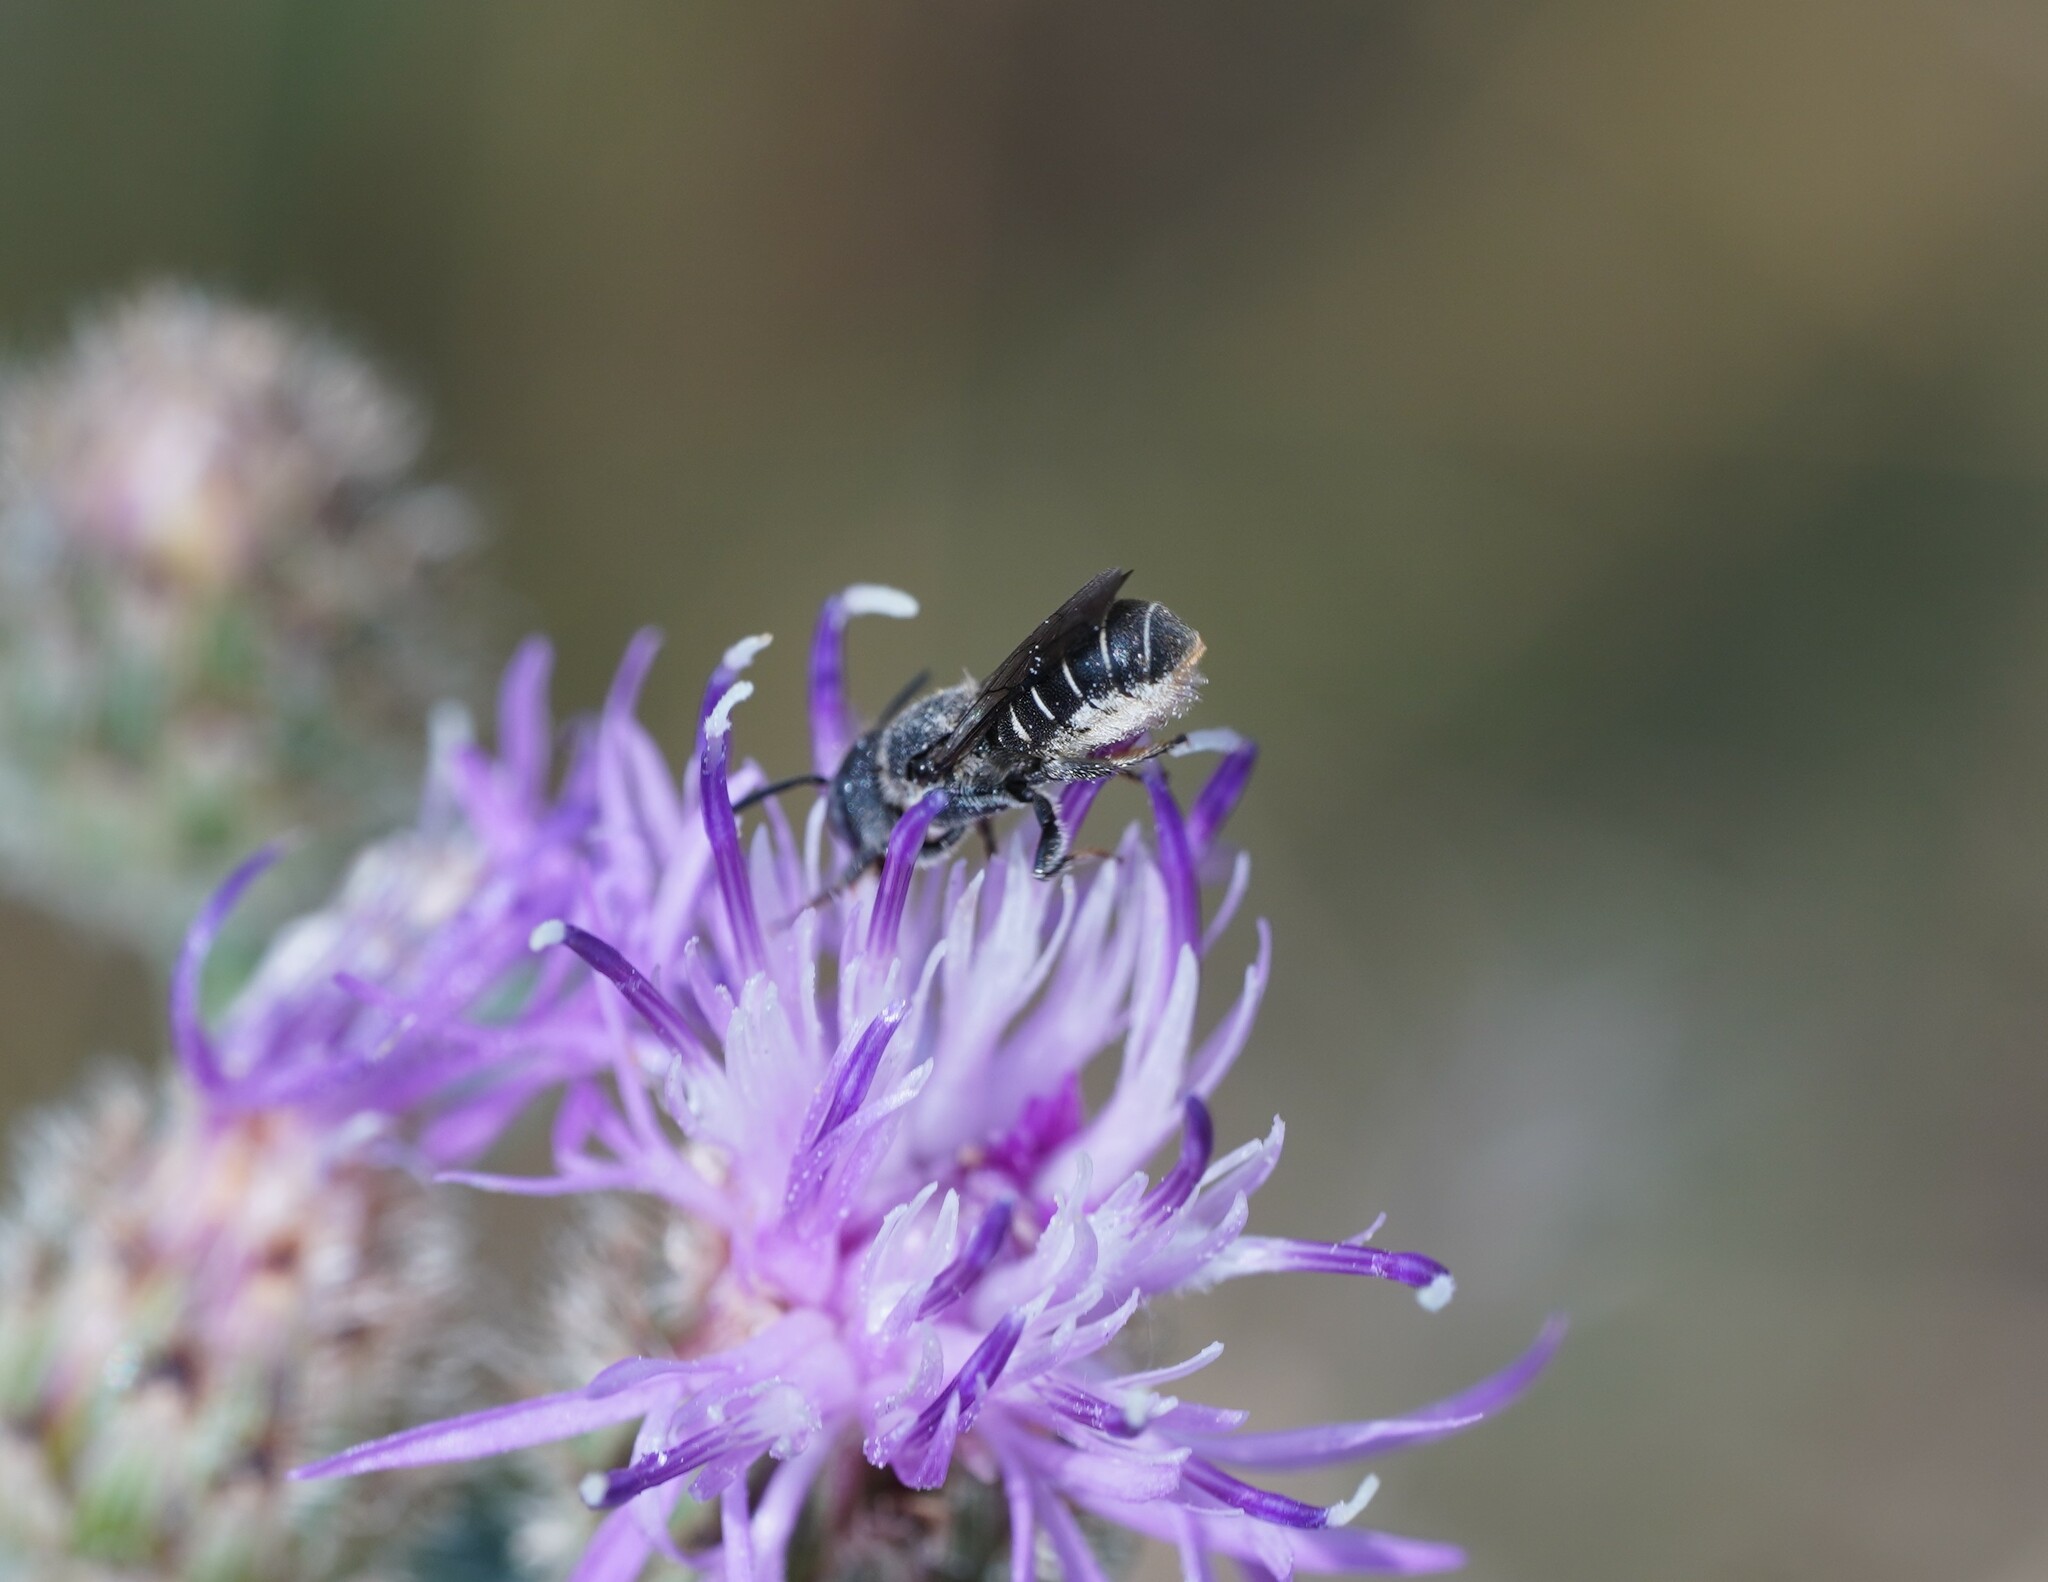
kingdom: Animalia
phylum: Arthropoda
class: Insecta
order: Hymenoptera
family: Megachilidae
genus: Heriades
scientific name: Heriades crenulata
